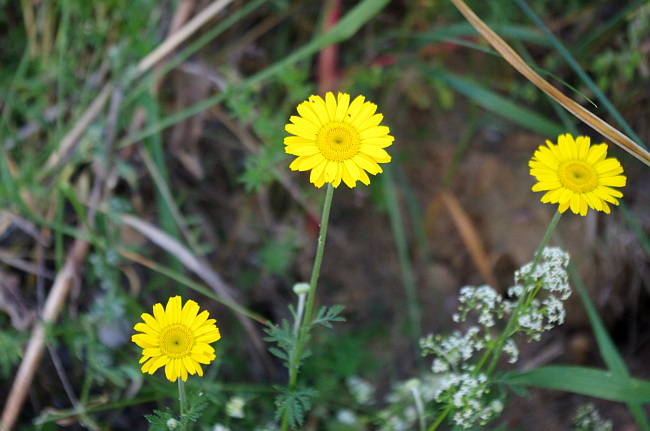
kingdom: Plantae
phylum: Tracheophyta
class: Magnoliopsida
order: Asterales
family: Asteraceae
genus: Cota
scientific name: Cota tinctoria
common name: Golden chamomile
